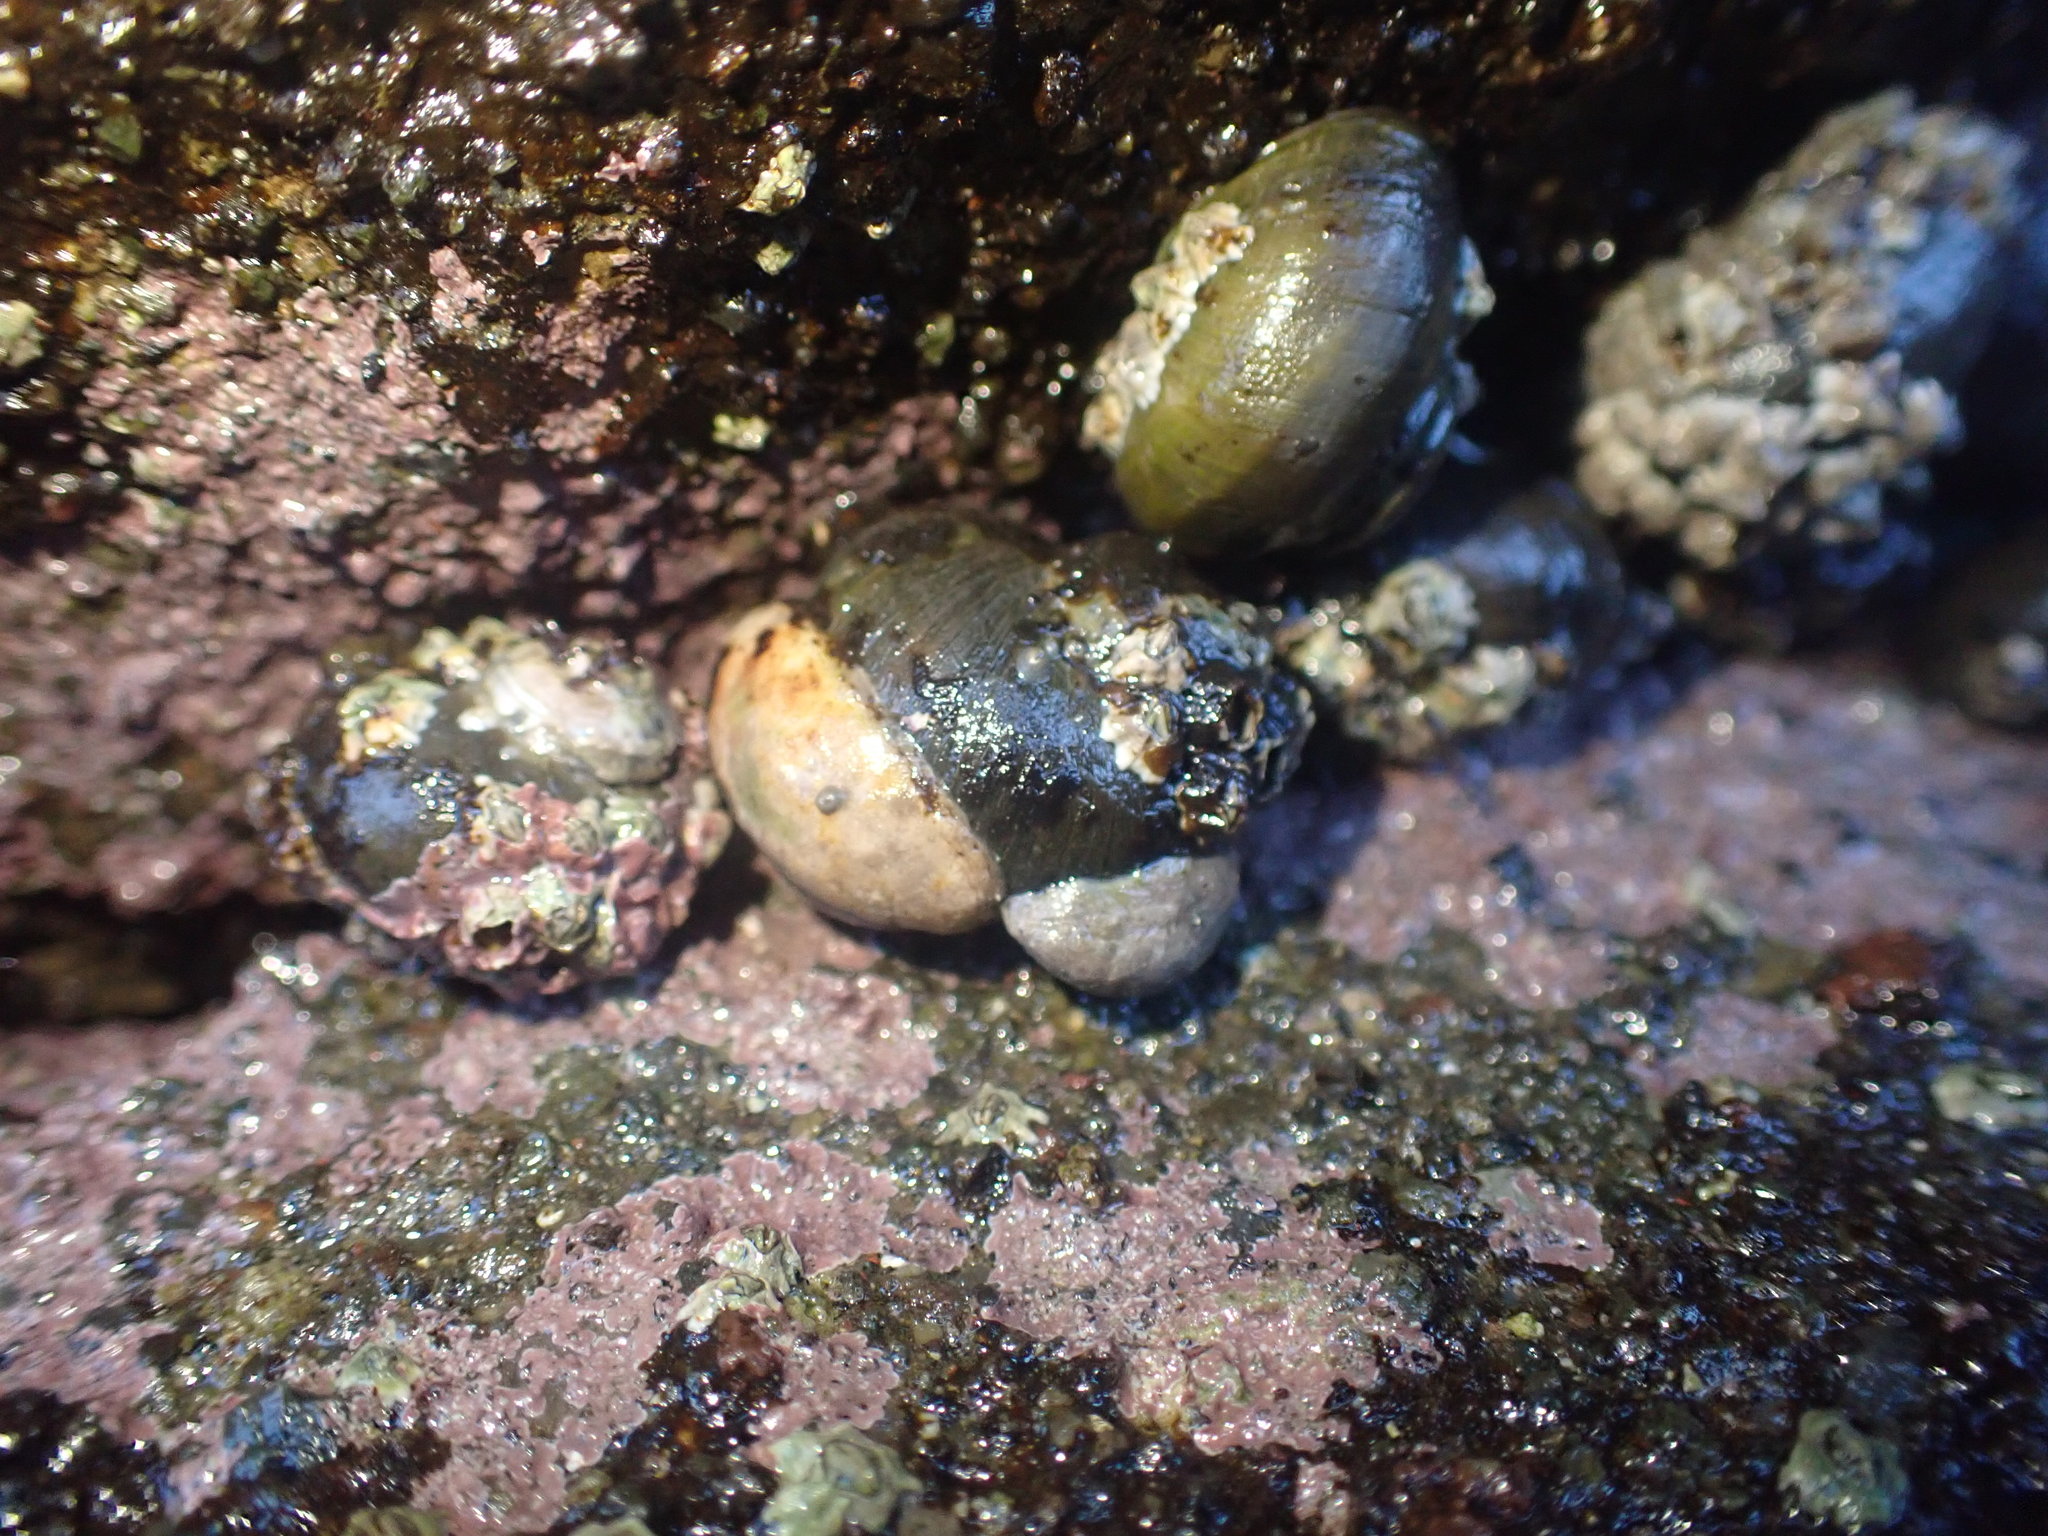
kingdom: Animalia
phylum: Mollusca
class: Gastropoda
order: Littorinimorpha
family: Calyptraeidae
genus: Maoricrypta
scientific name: Maoricrypta monoxyla
